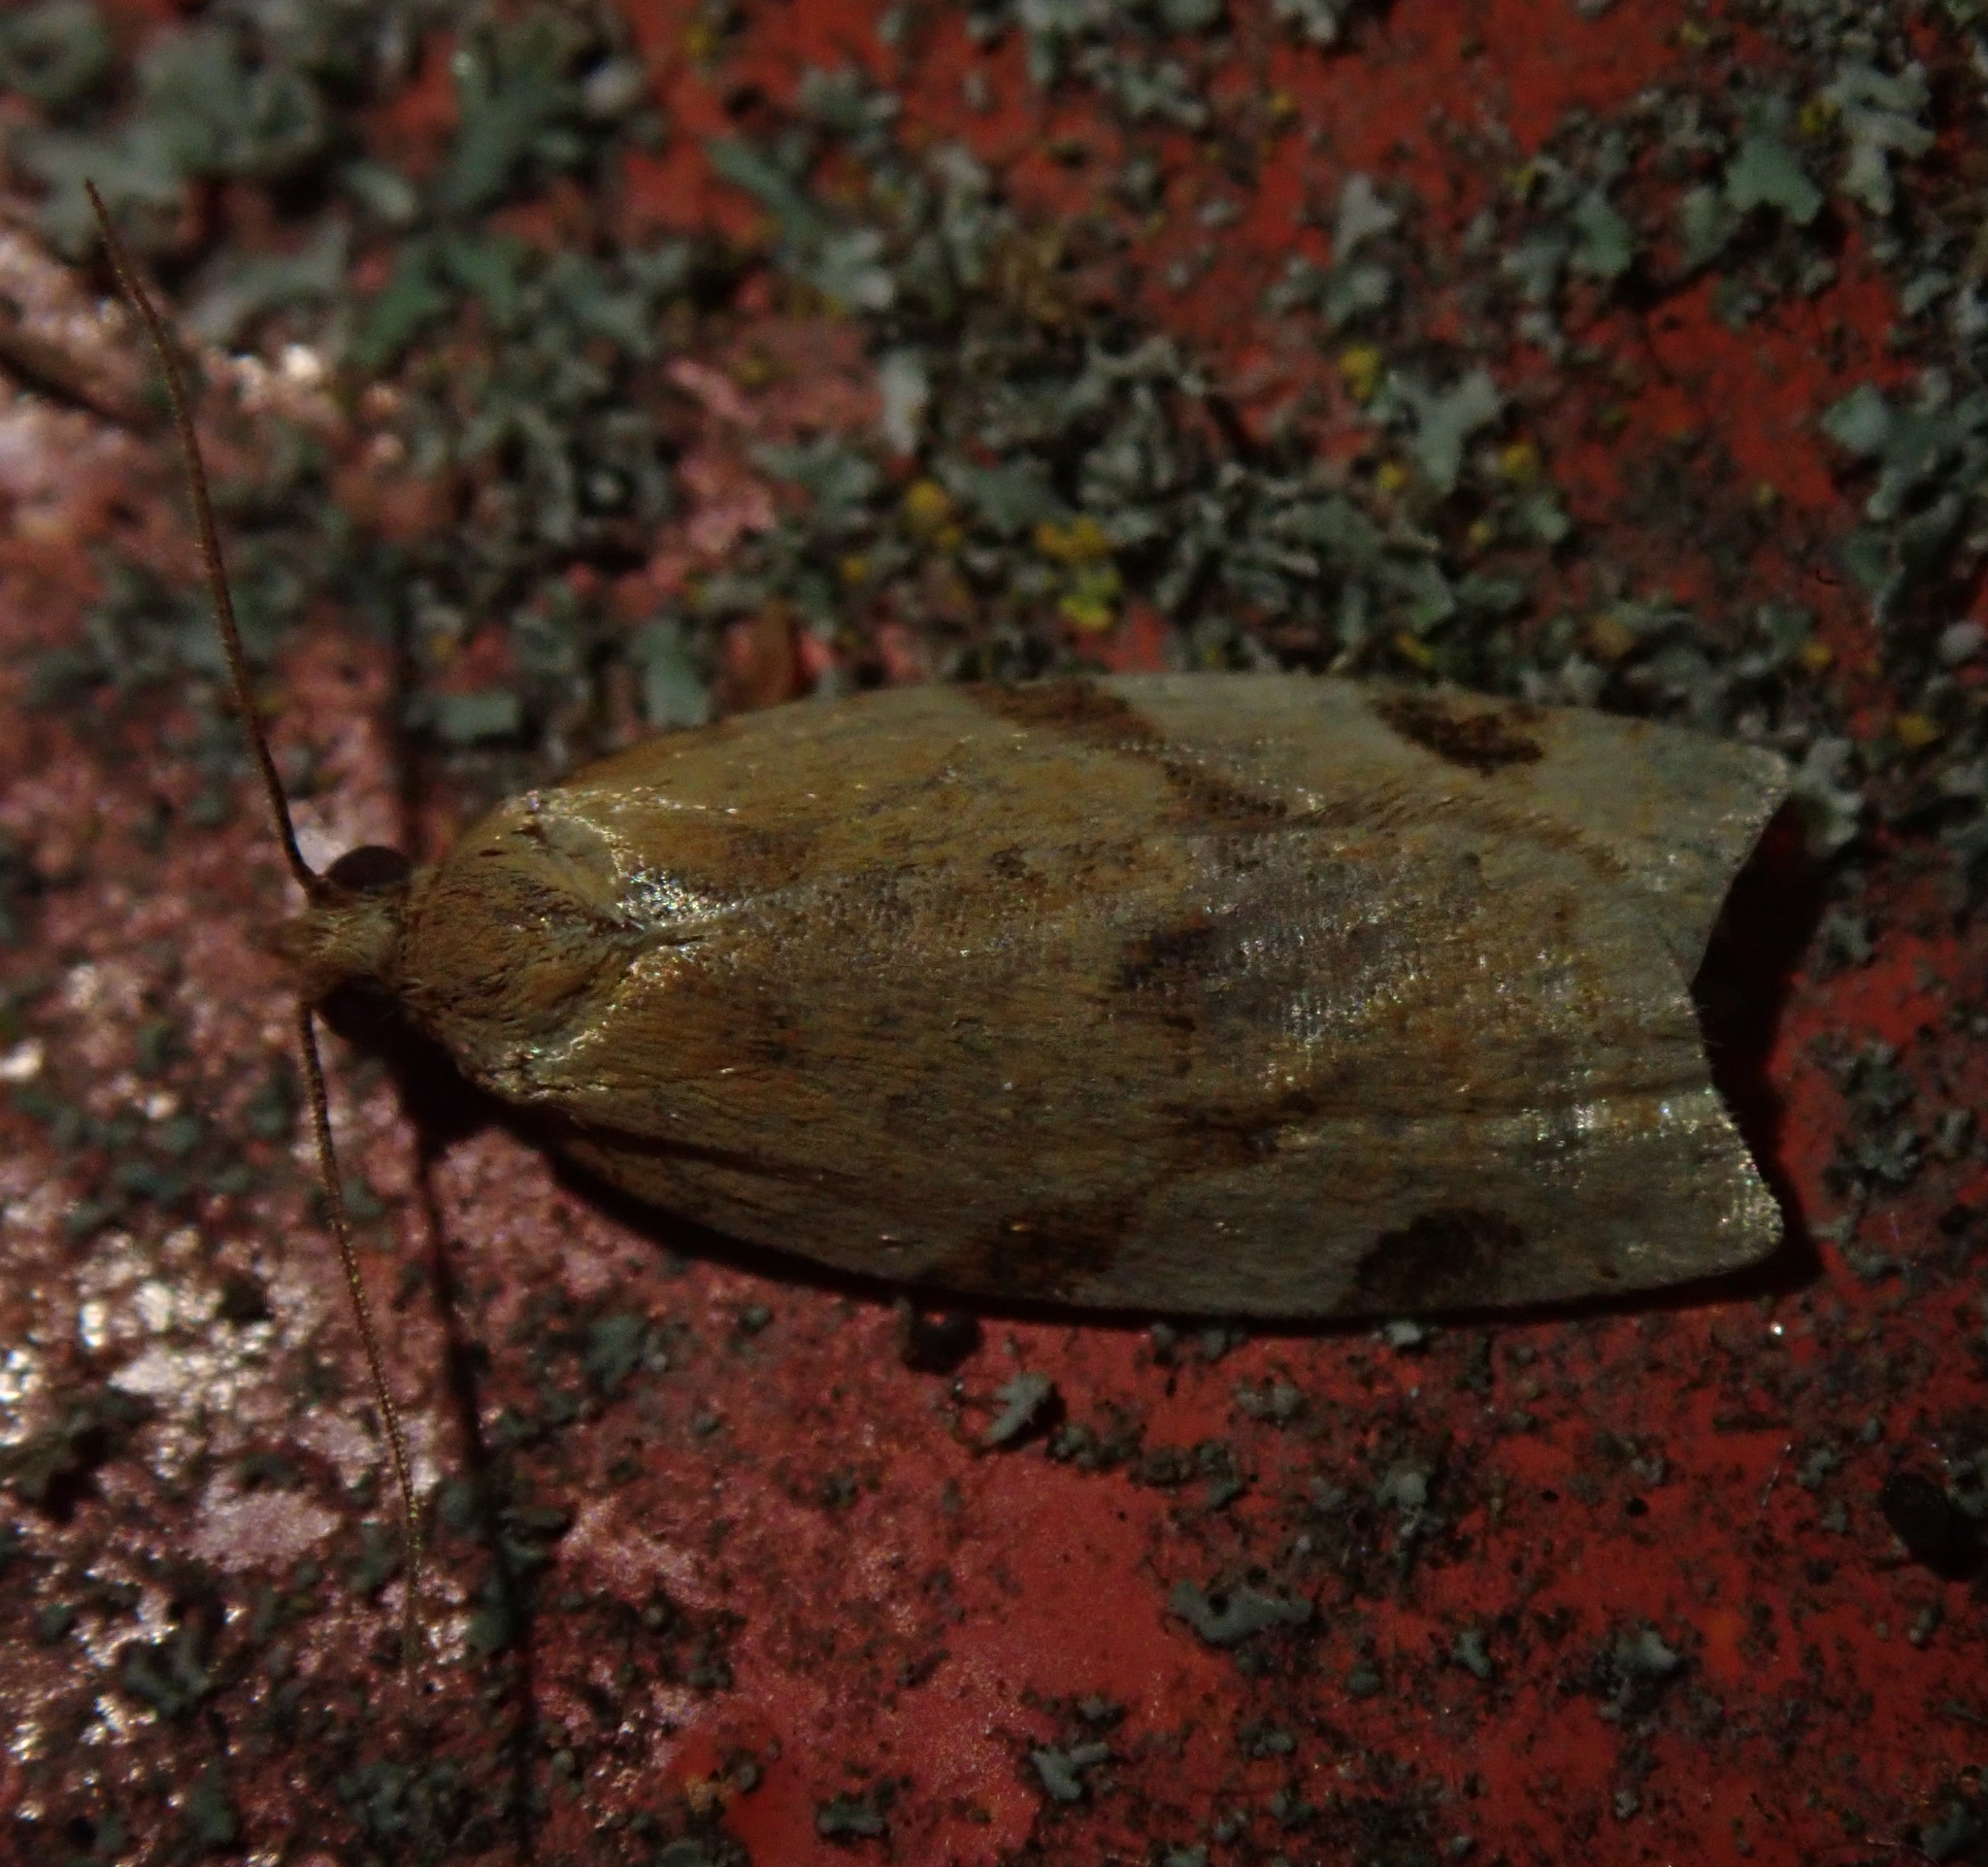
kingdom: Animalia
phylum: Arthropoda
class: Insecta
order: Lepidoptera
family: Tortricidae
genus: Paramesia
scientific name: Paramesia gnomana
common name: Small straw twist
